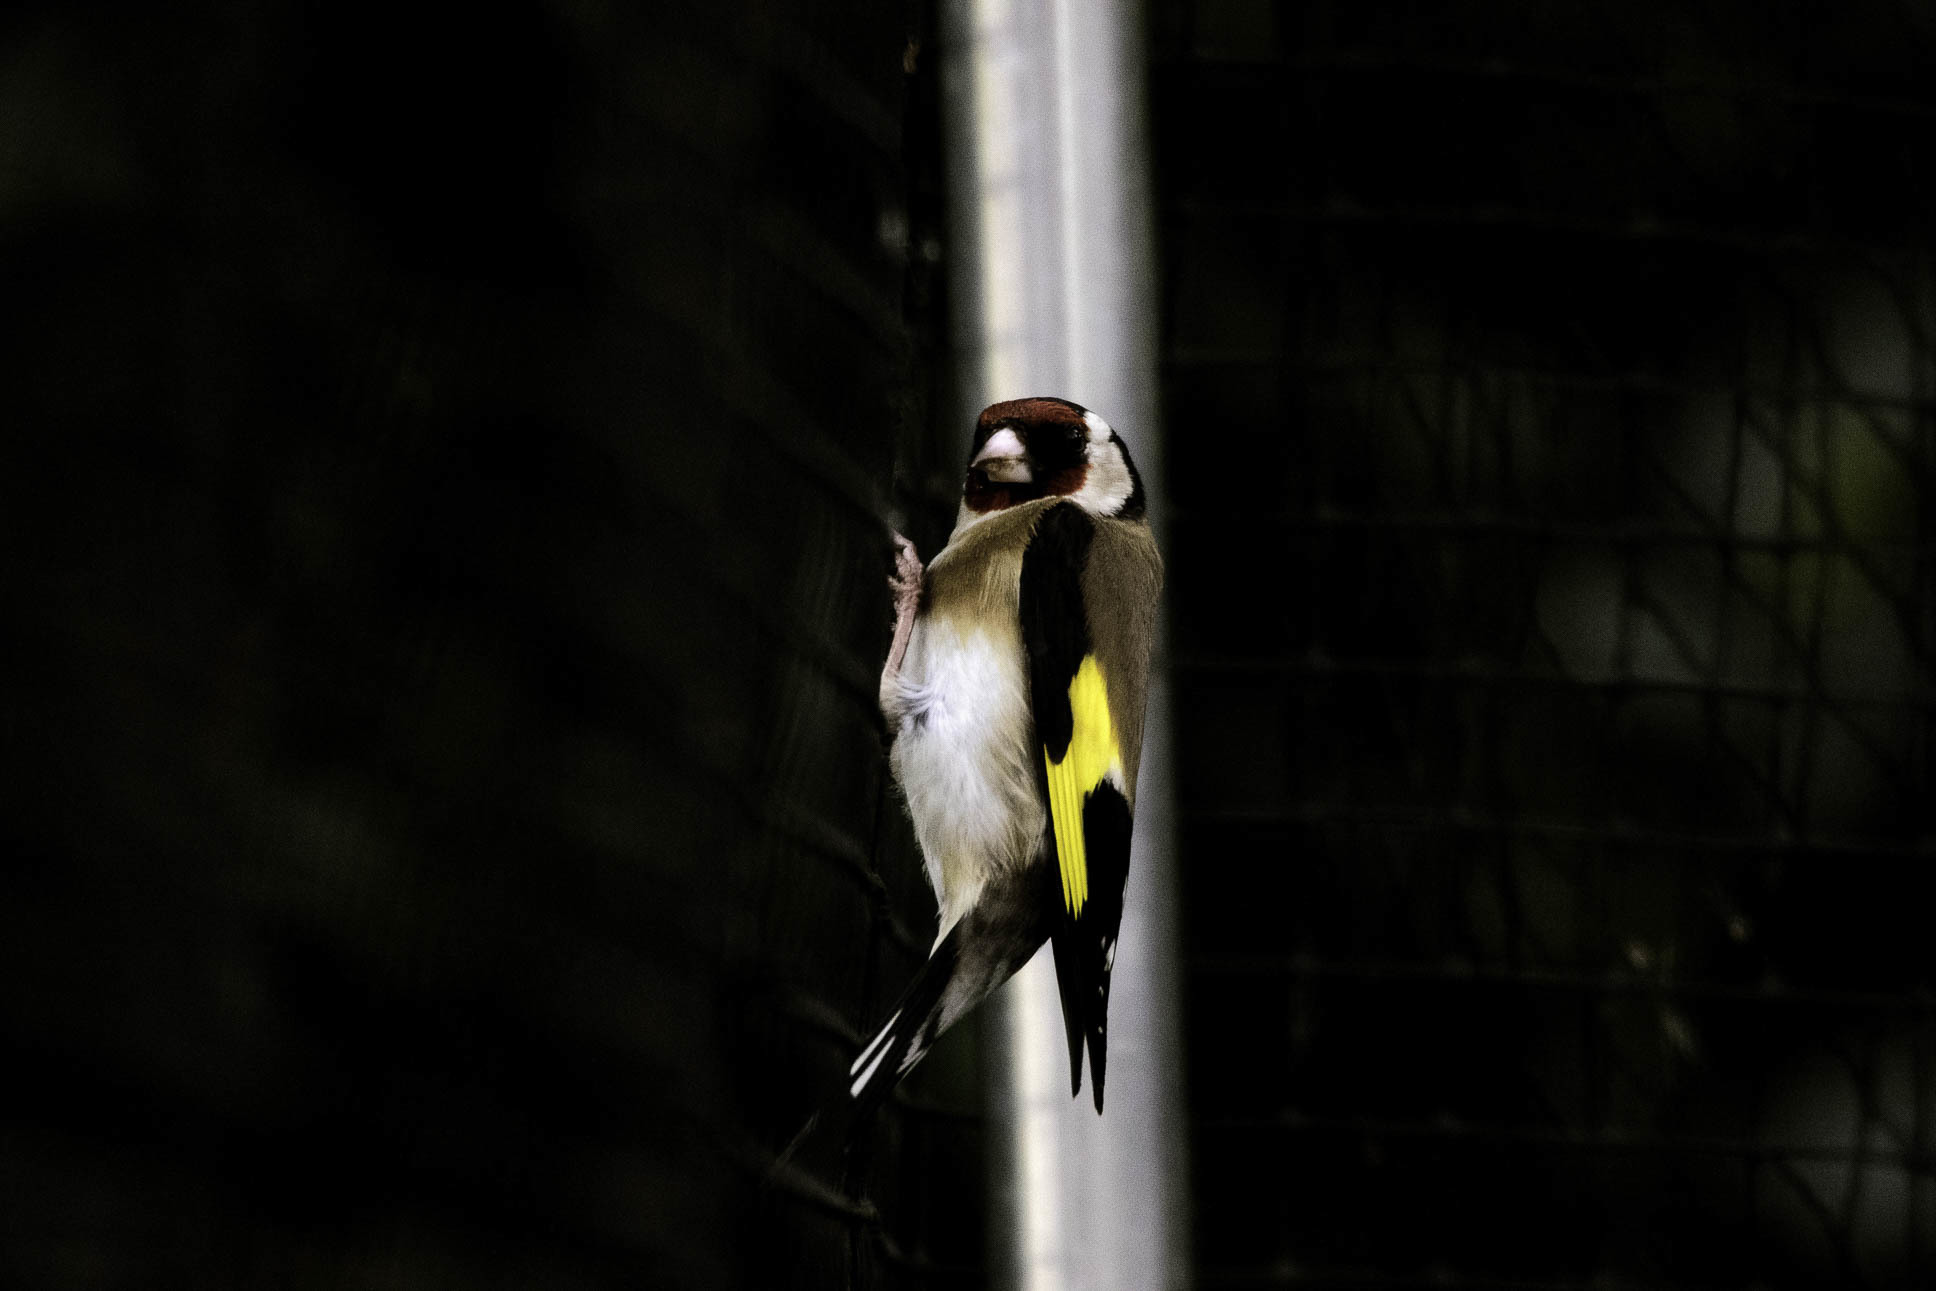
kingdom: Animalia
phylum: Chordata
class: Aves
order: Passeriformes
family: Fringillidae
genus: Carduelis
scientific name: Carduelis carduelis
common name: European goldfinch
